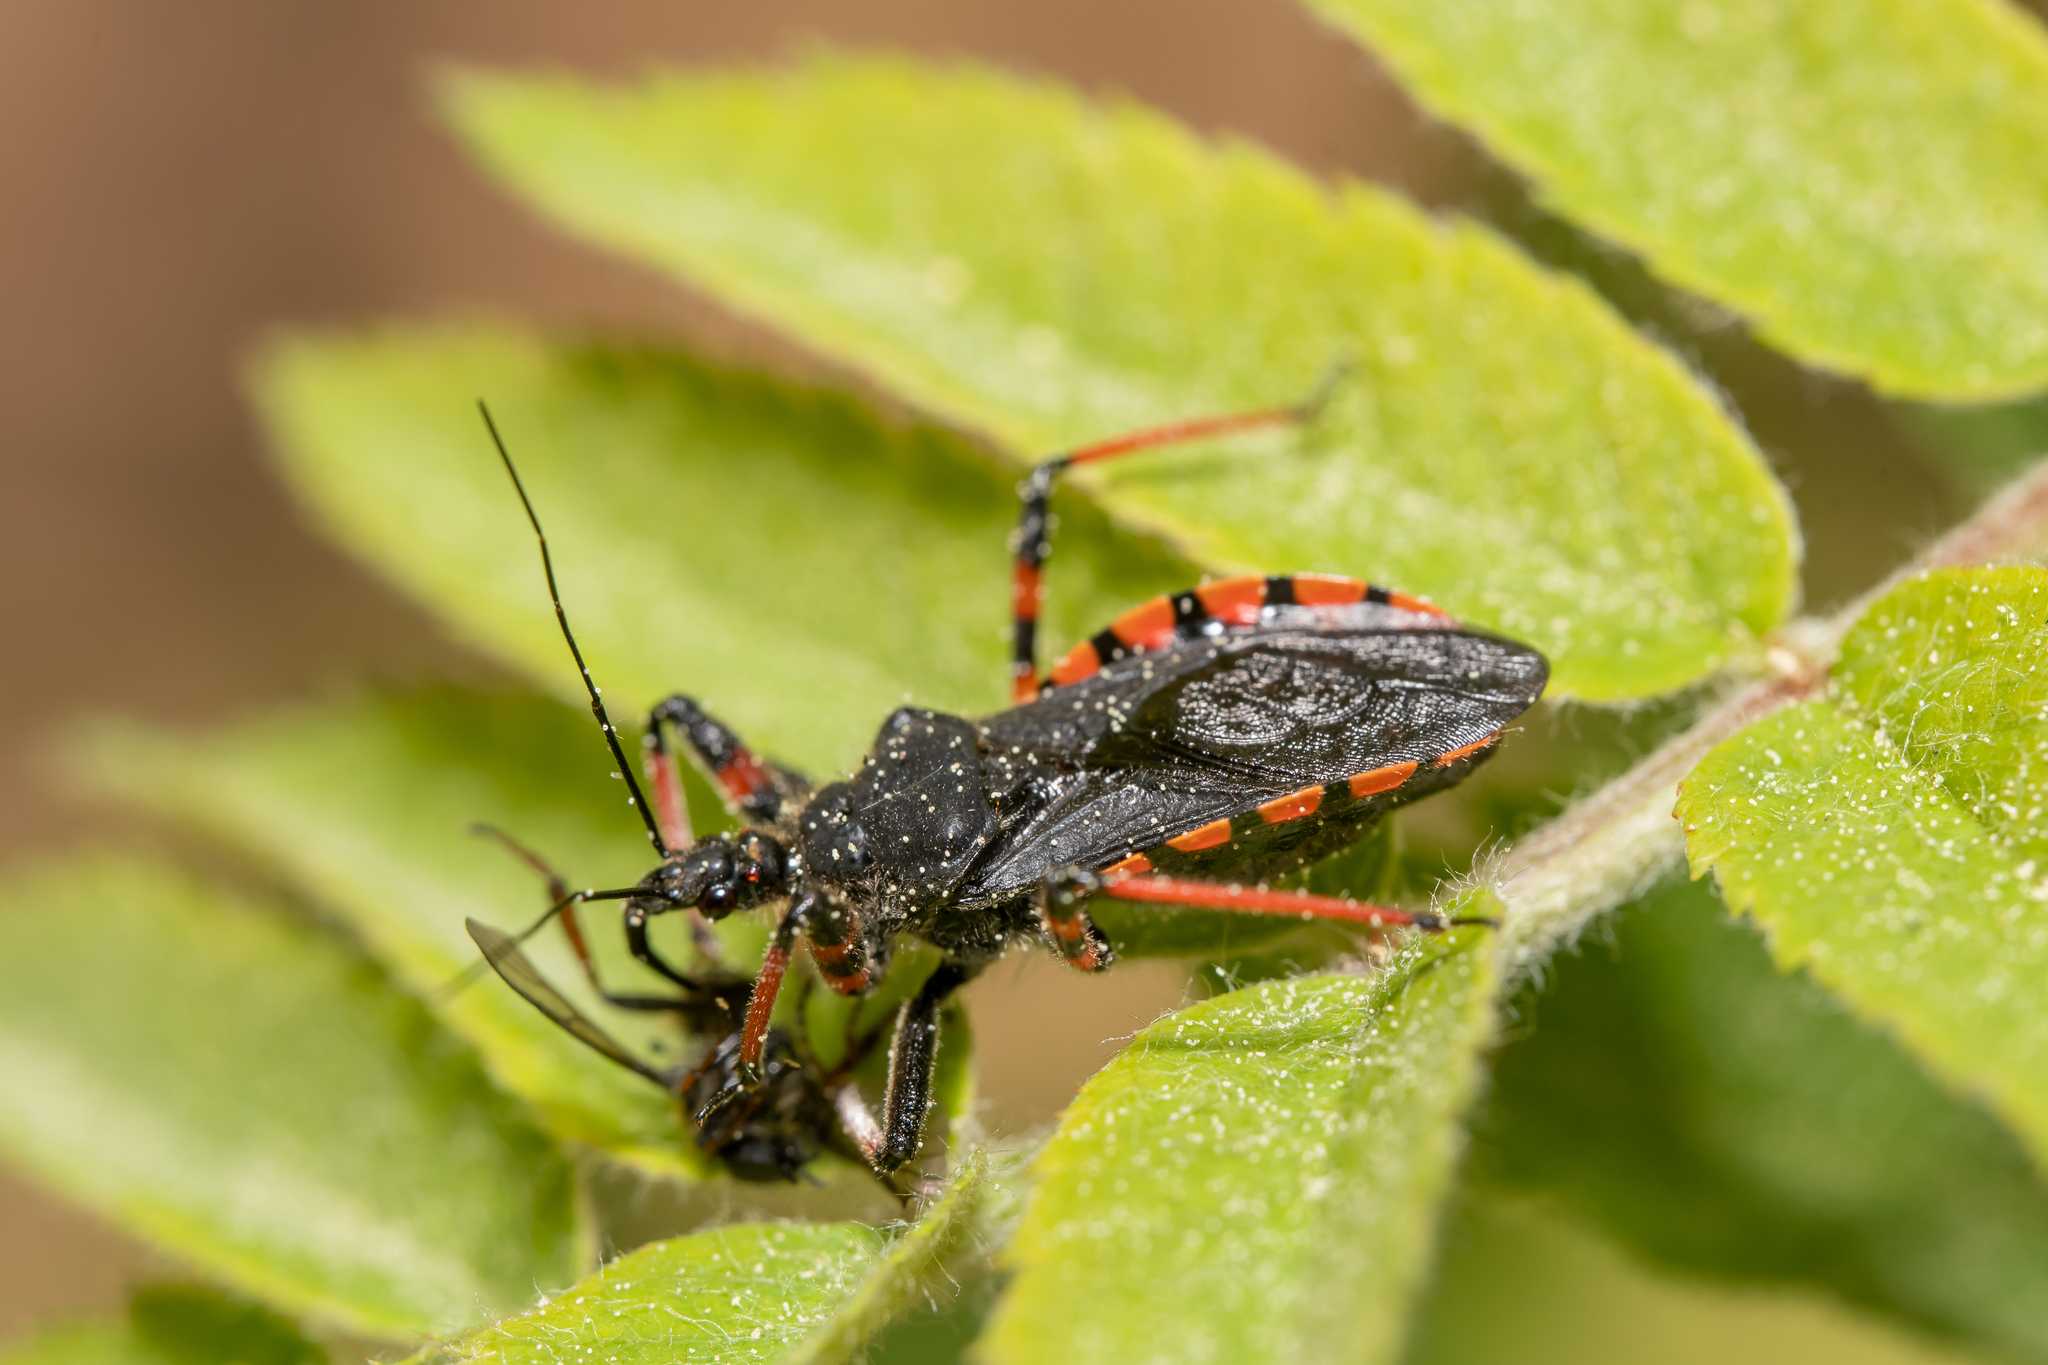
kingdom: Animalia
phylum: Arthropoda
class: Insecta
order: Hemiptera
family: Reduviidae
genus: Rhynocoris
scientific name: Rhynocoris annulatus
